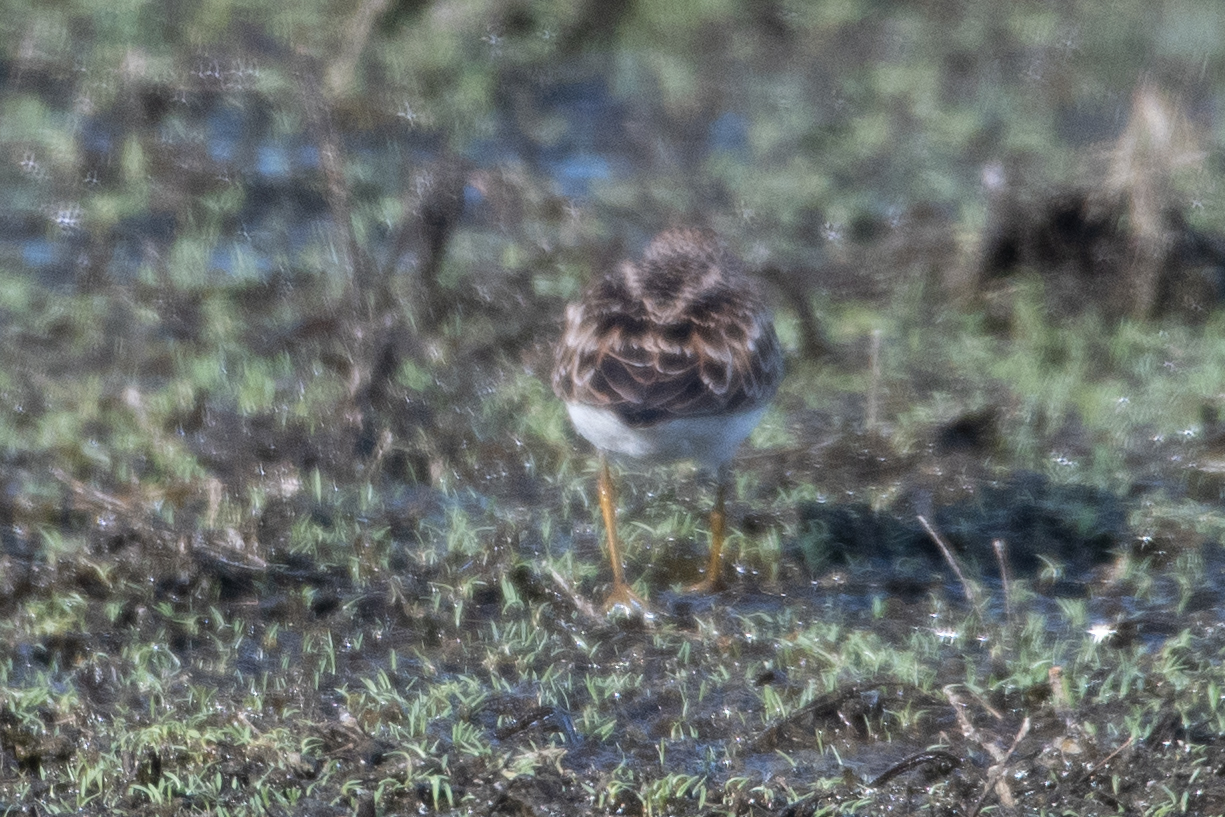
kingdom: Animalia
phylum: Chordata
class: Aves
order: Charadriiformes
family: Scolopacidae
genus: Calidris
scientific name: Calidris minutilla
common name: Least sandpiper
